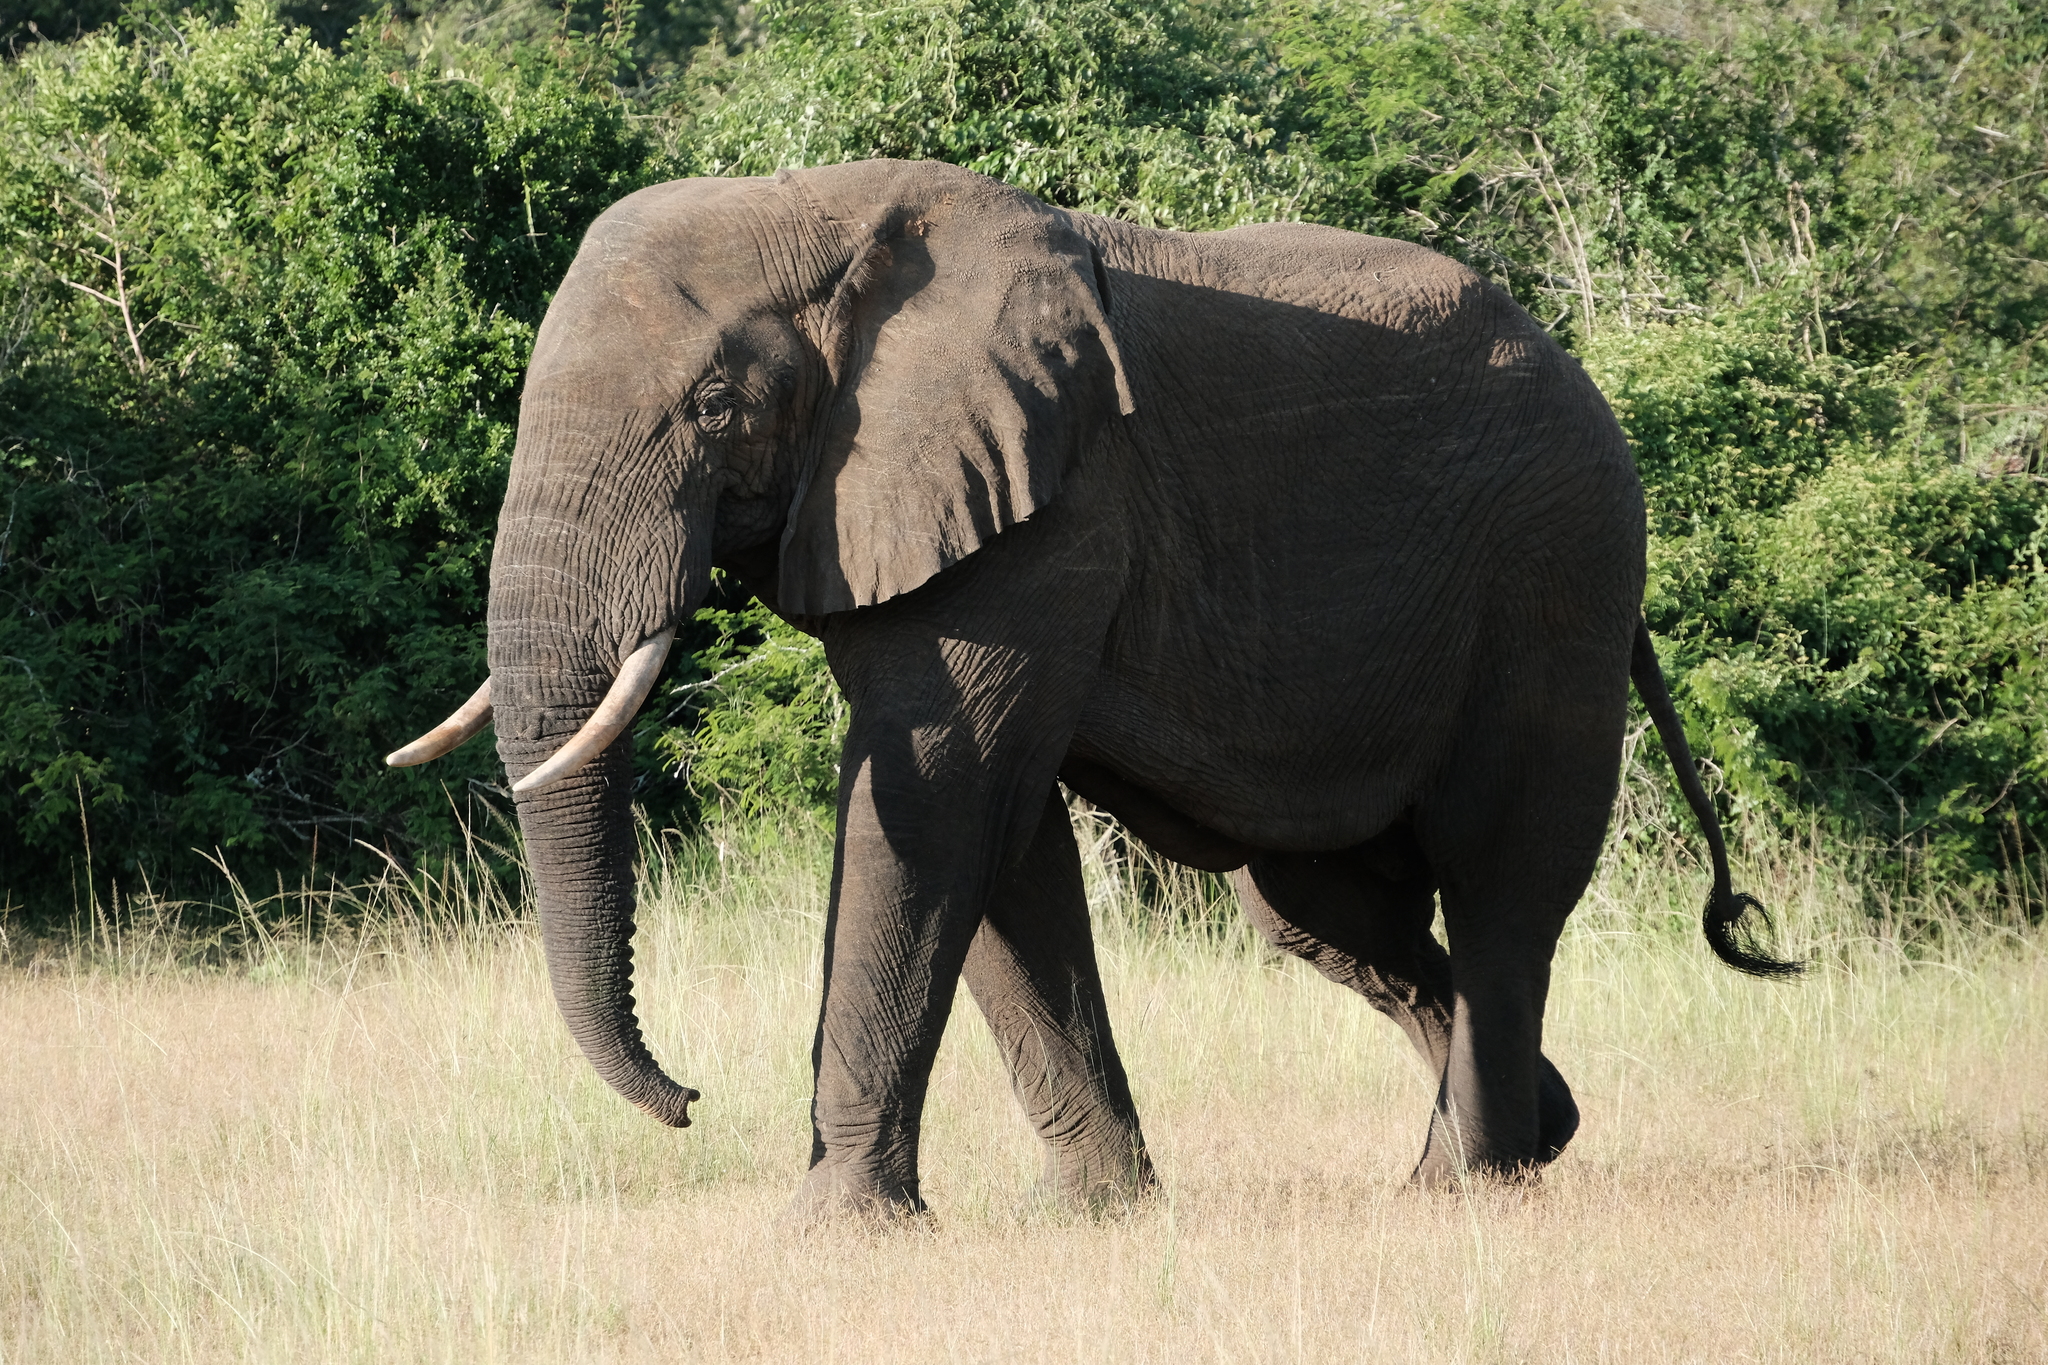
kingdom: Animalia
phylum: Chordata
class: Mammalia
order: Proboscidea
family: Elephantidae
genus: Loxodonta
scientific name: Loxodonta africana
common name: African elephant
